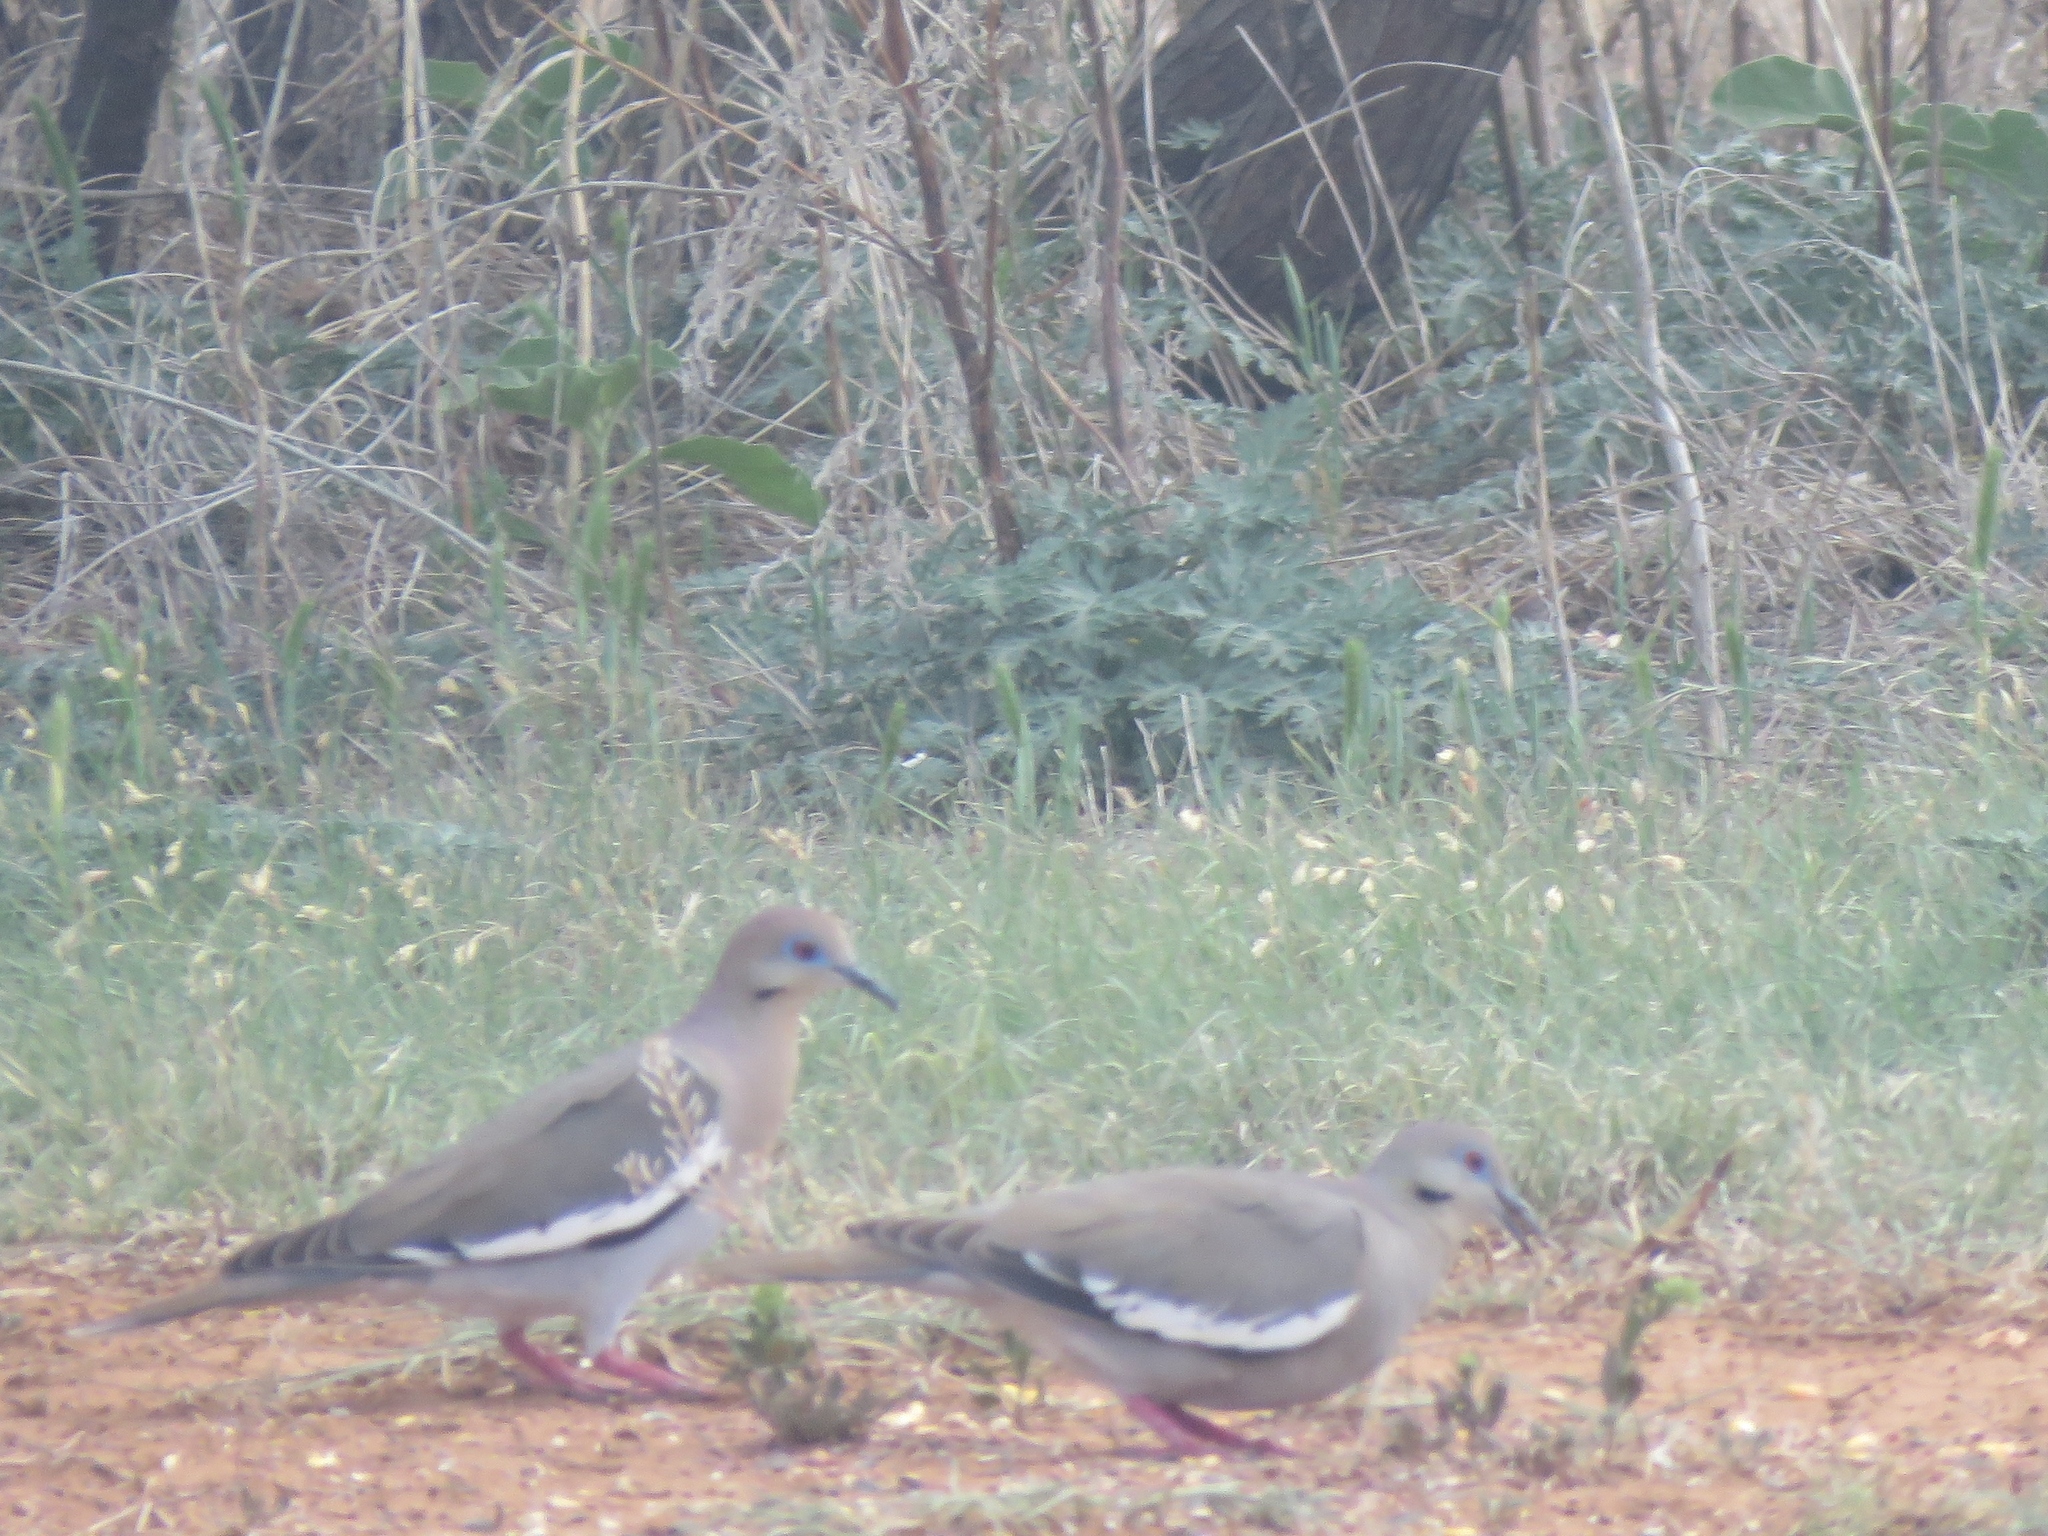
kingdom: Animalia
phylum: Chordata
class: Aves
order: Columbiformes
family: Columbidae
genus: Zenaida
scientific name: Zenaida asiatica
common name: White-winged dove
